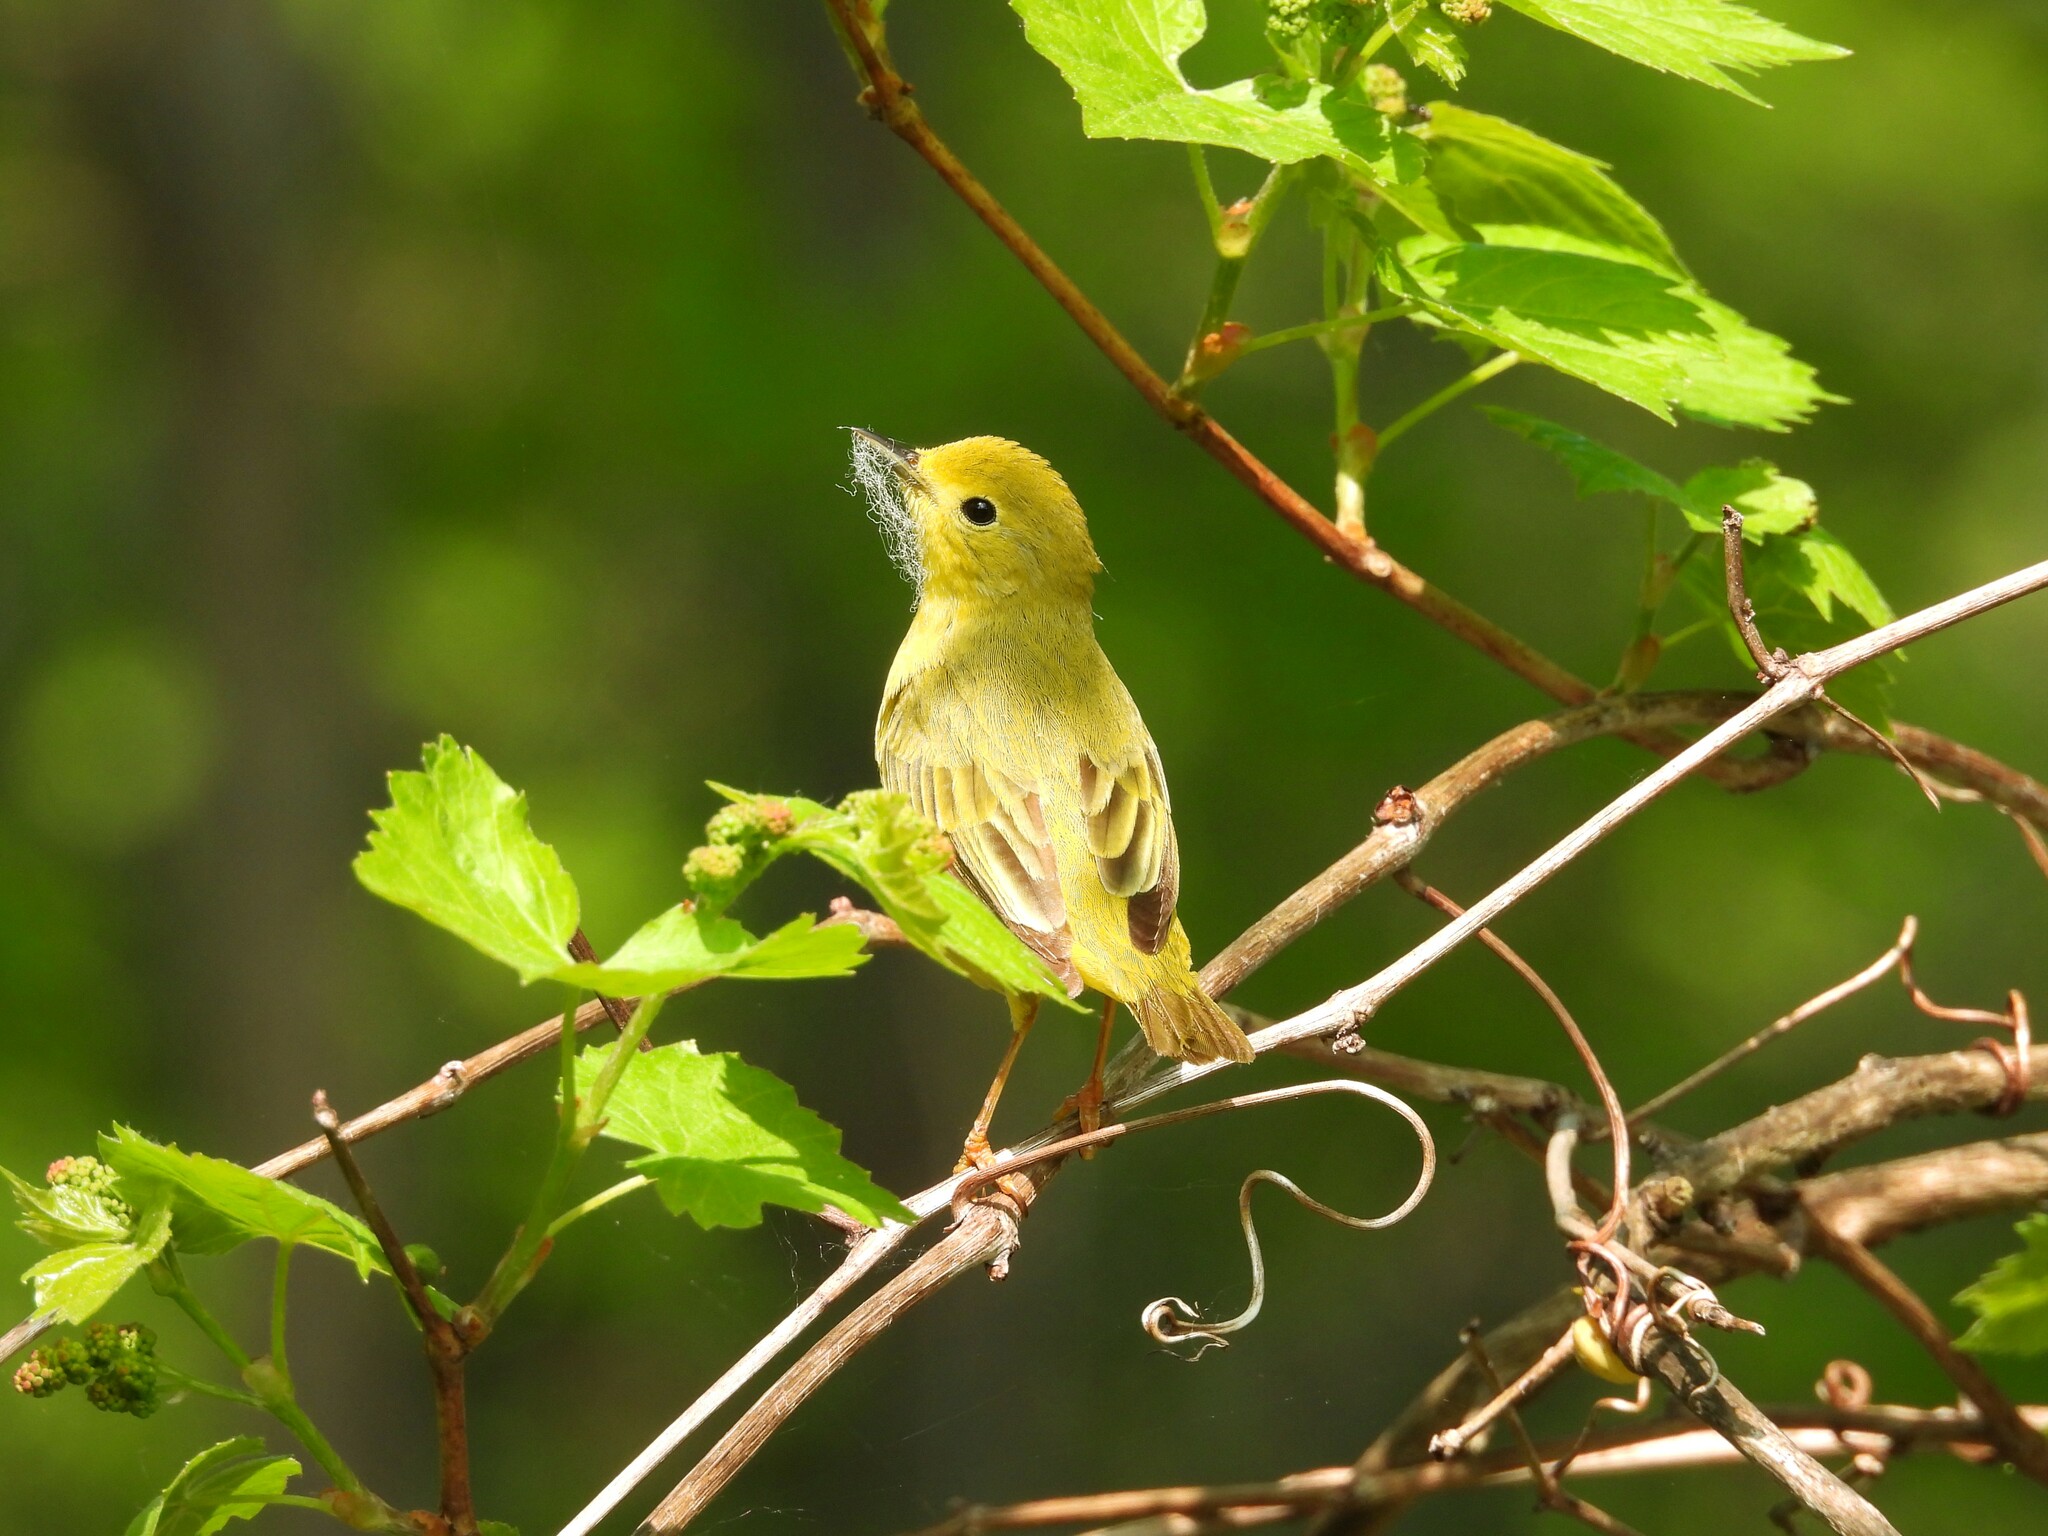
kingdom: Animalia
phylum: Chordata
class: Aves
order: Passeriformes
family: Parulidae
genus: Setophaga
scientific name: Setophaga petechia
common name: Yellow warbler
